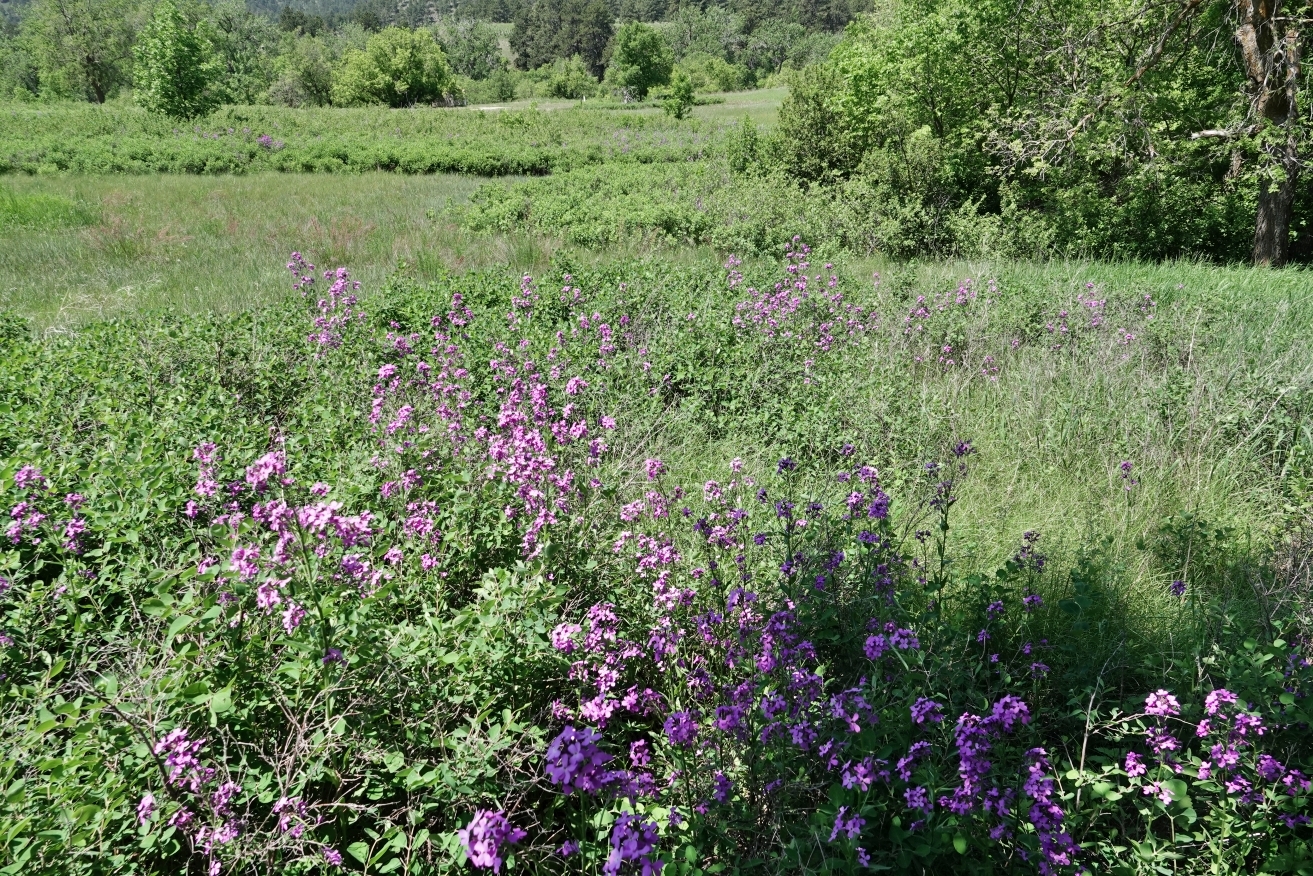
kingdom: Plantae
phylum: Tracheophyta
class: Magnoliopsida
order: Brassicales
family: Brassicaceae
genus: Hesperis
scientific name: Hesperis matronalis
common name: Dame's-violet
